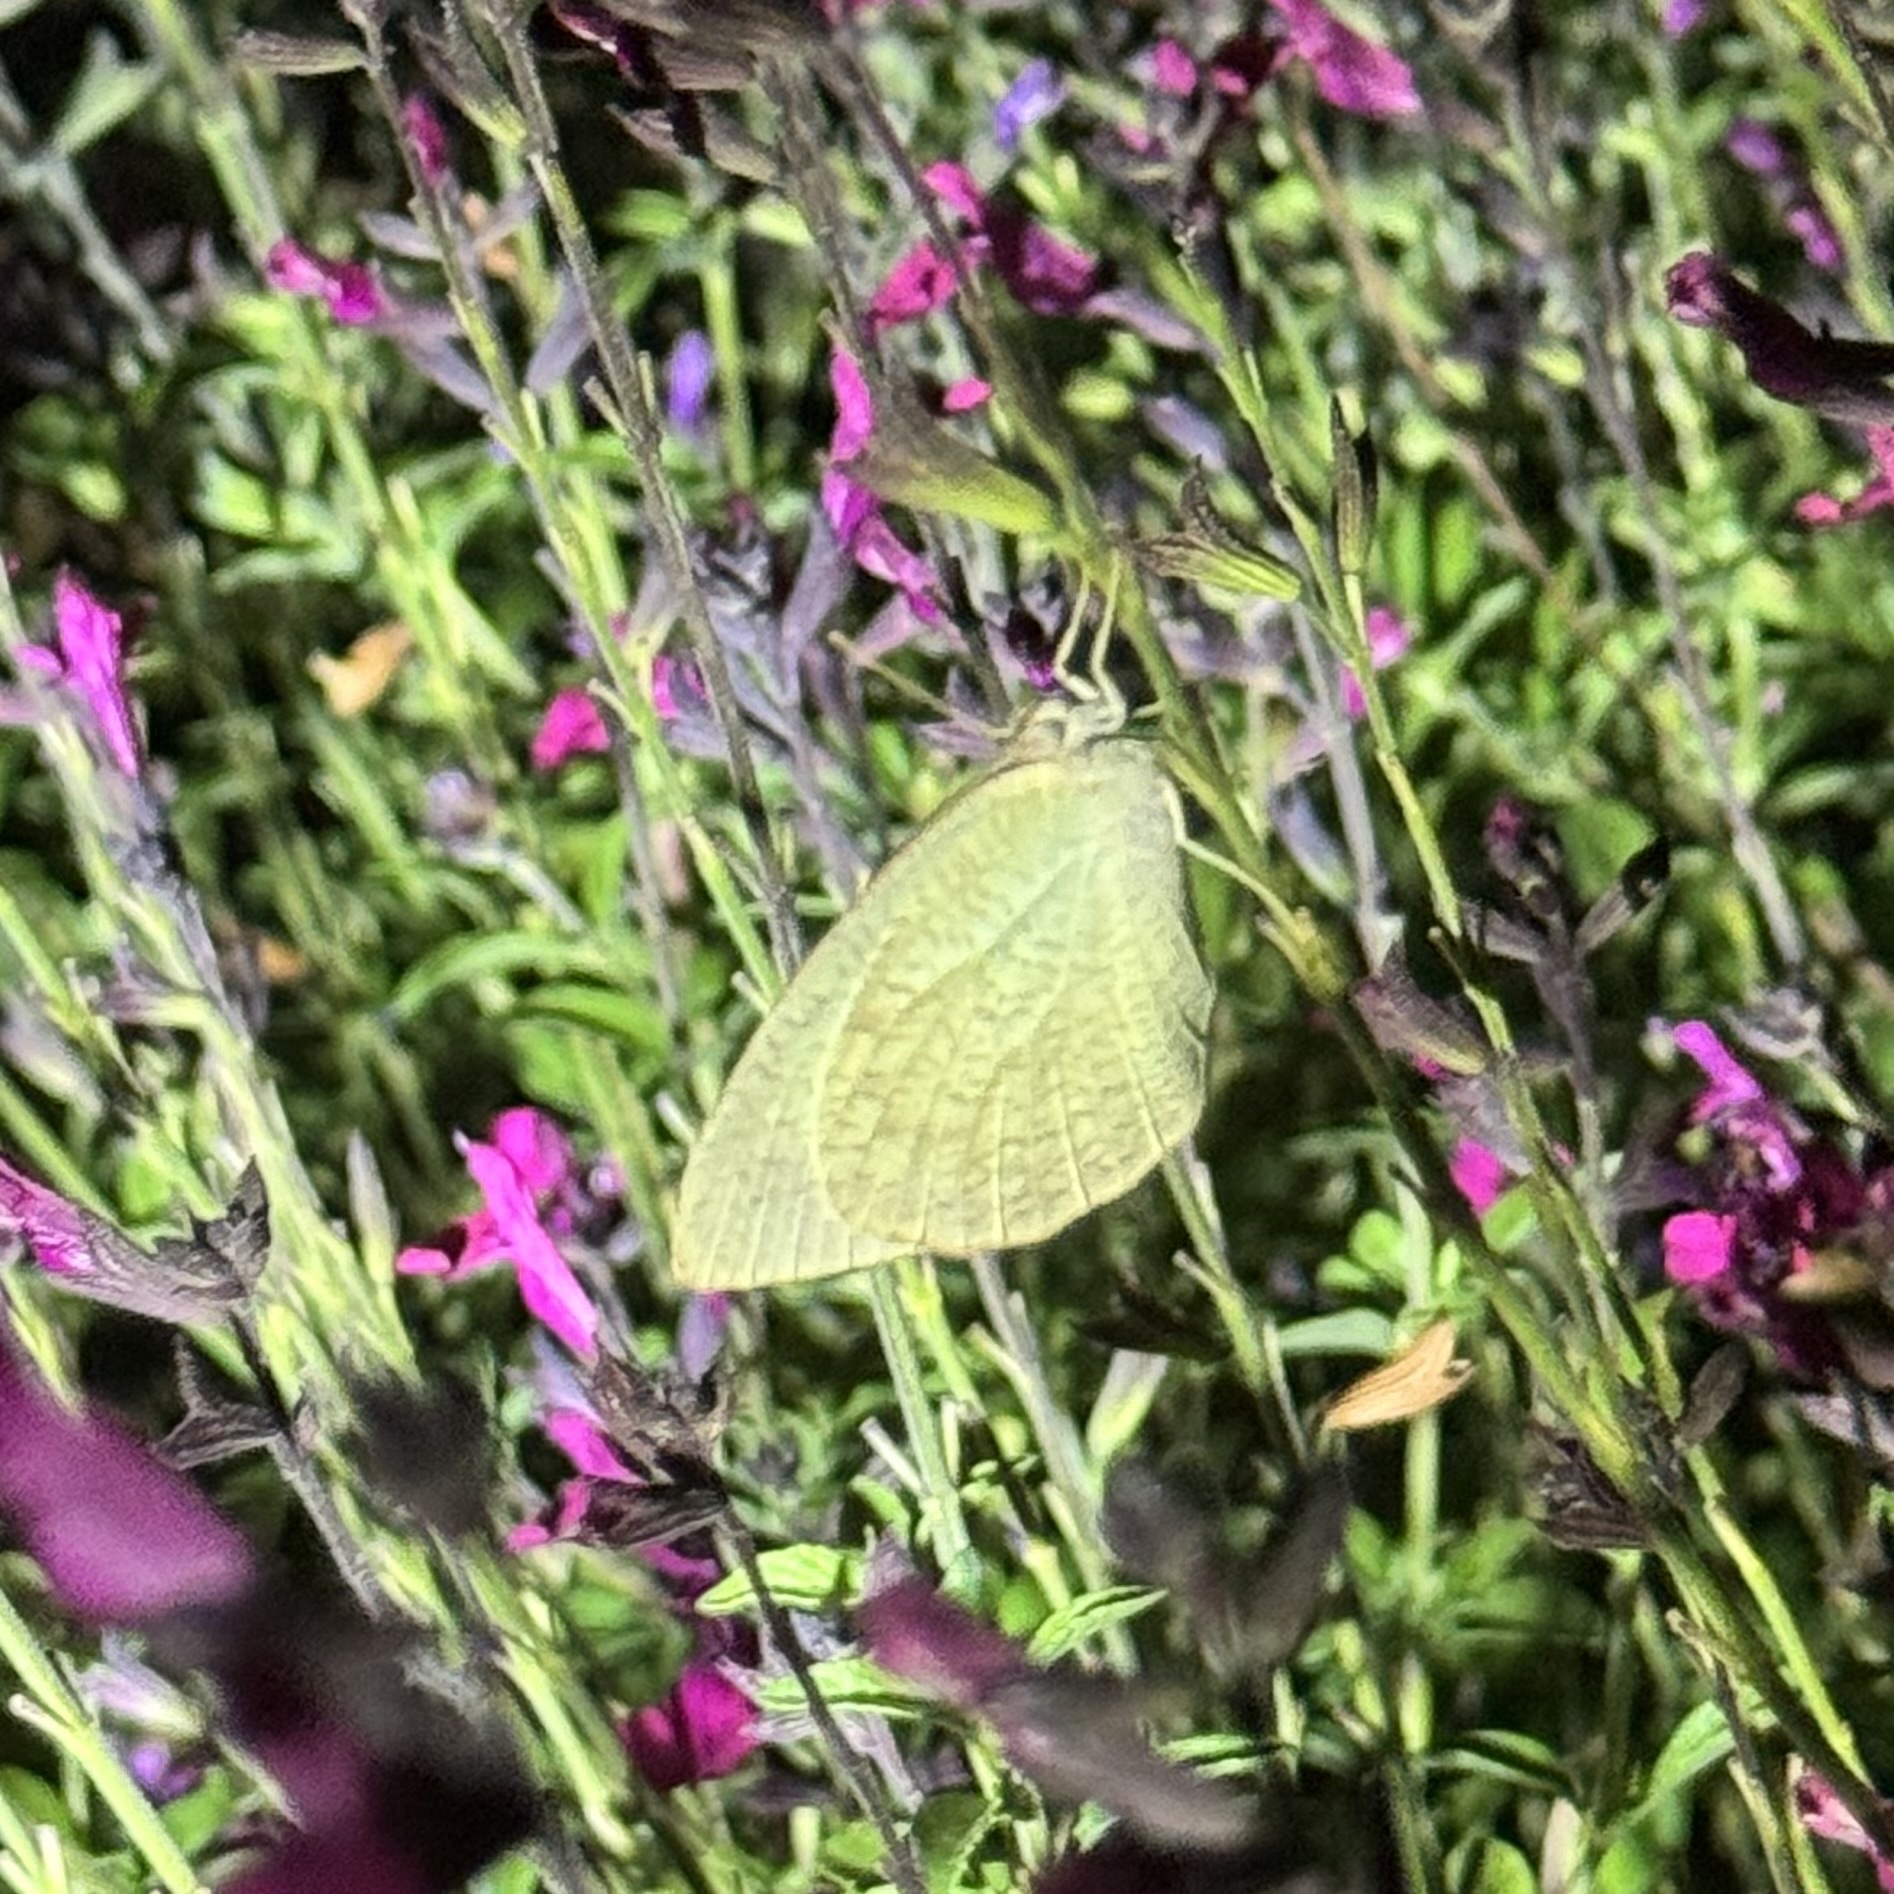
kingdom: Animalia
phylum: Arthropoda
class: Insecta
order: Lepidoptera
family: Pieridae
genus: Catopsilia
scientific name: Catopsilia pyranthe
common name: Mottled emigrant
